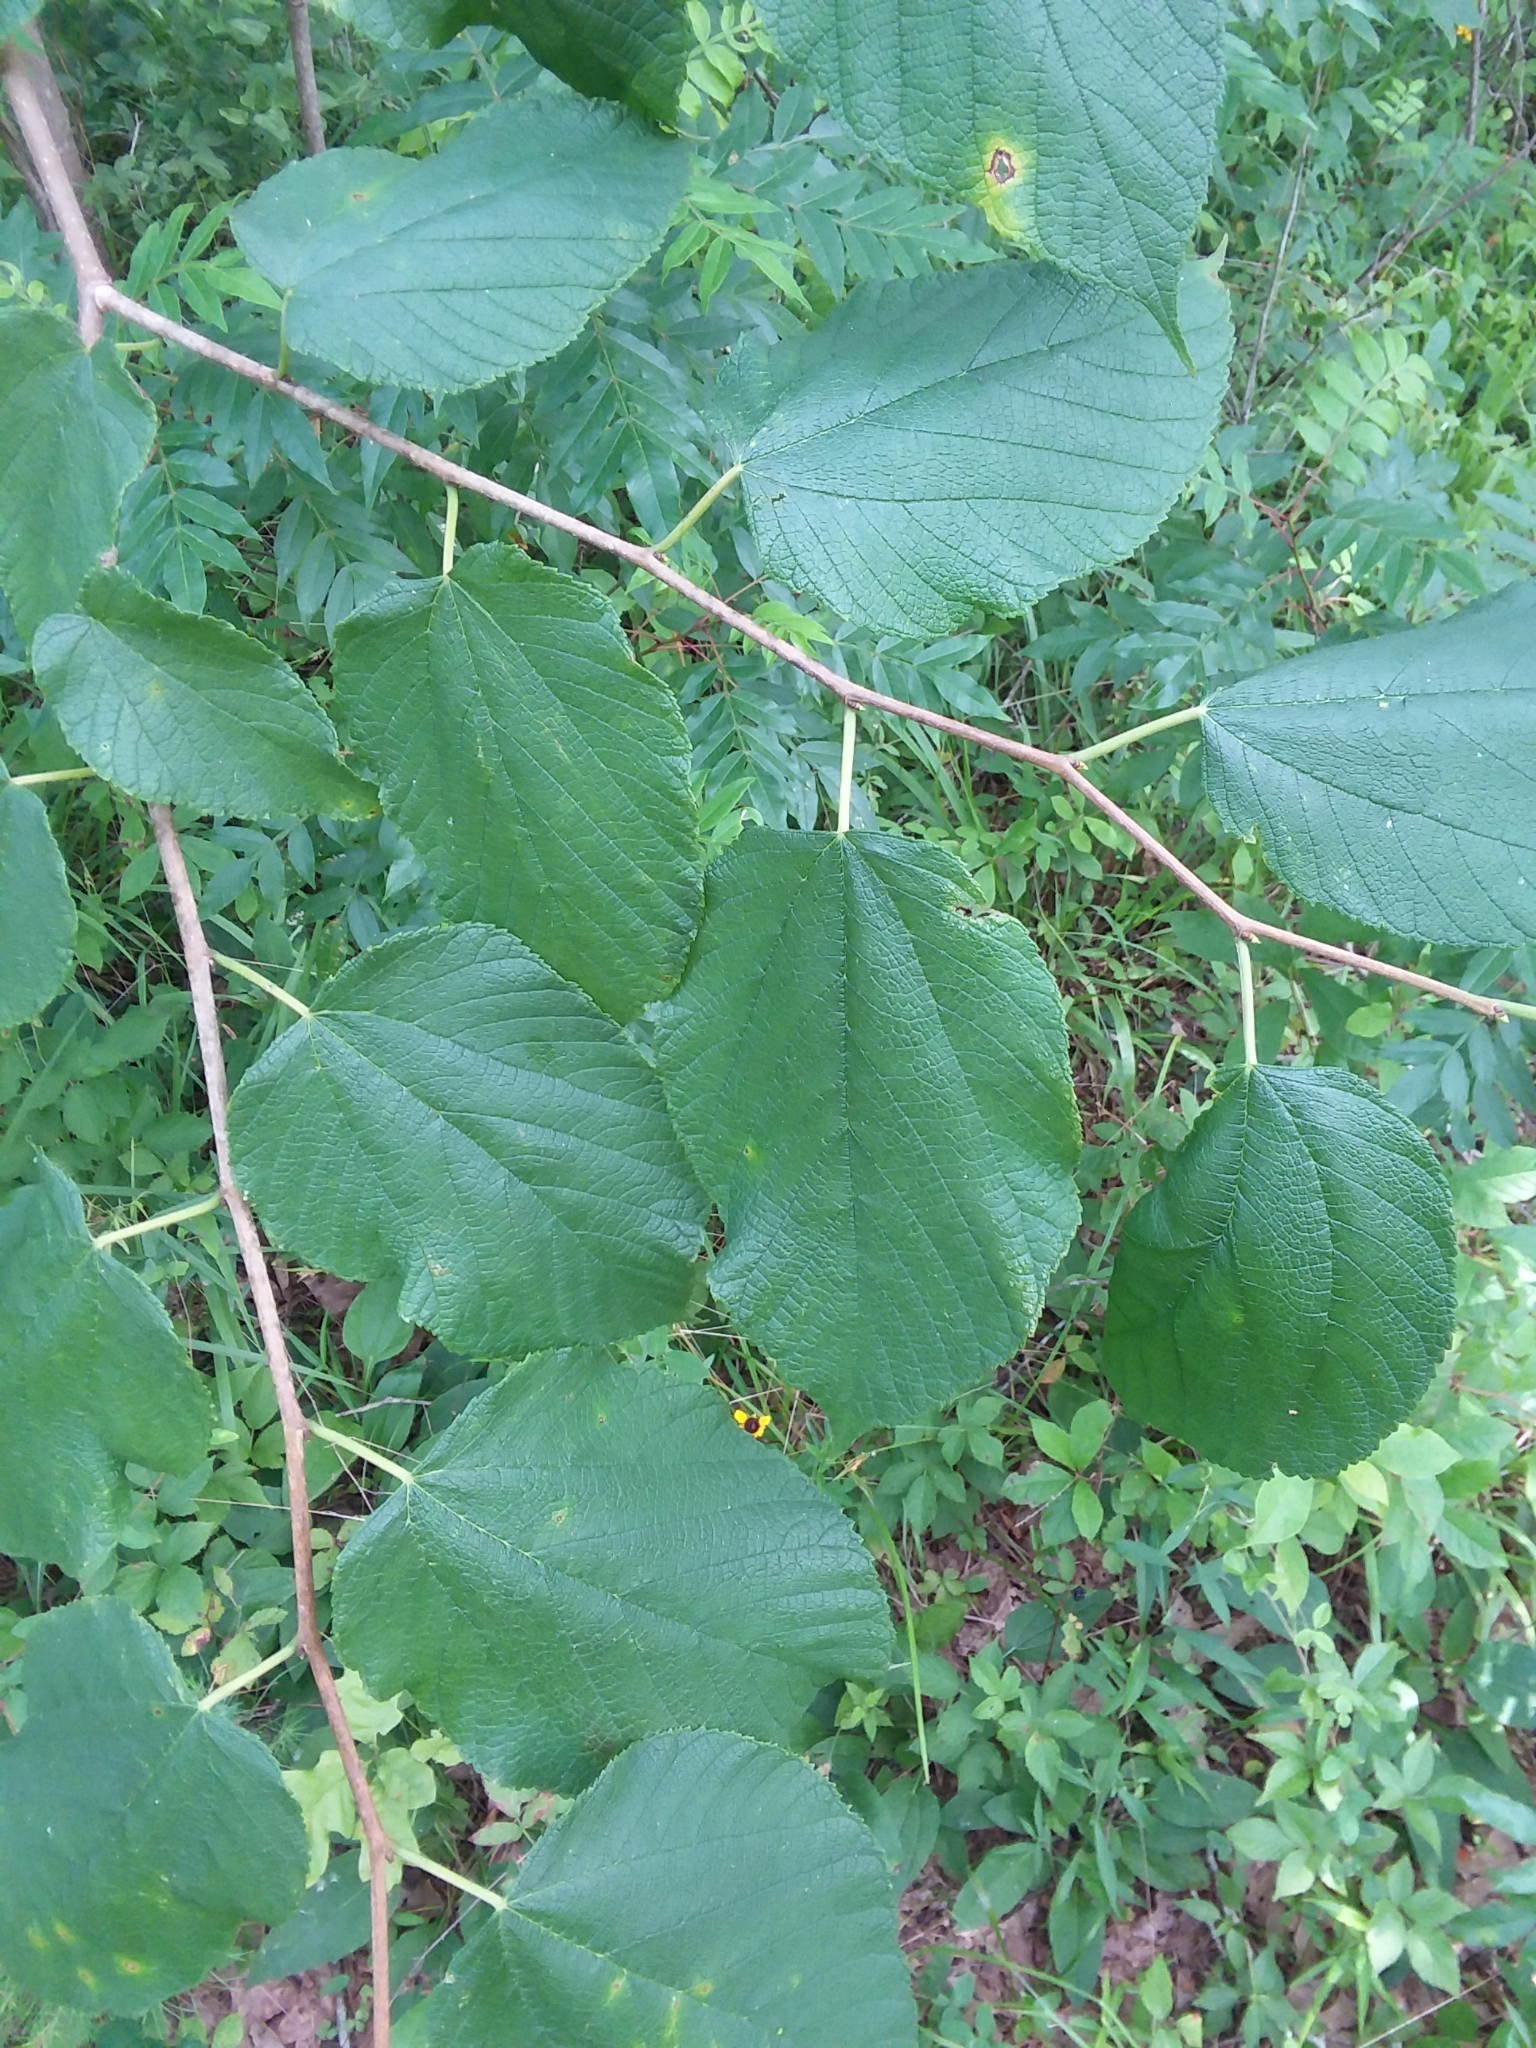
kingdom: Plantae
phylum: Tracheophyta
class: Magnoliopsida
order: Rosales
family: Moraceae
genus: Morus
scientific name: Morus rubra
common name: Red mulberry
